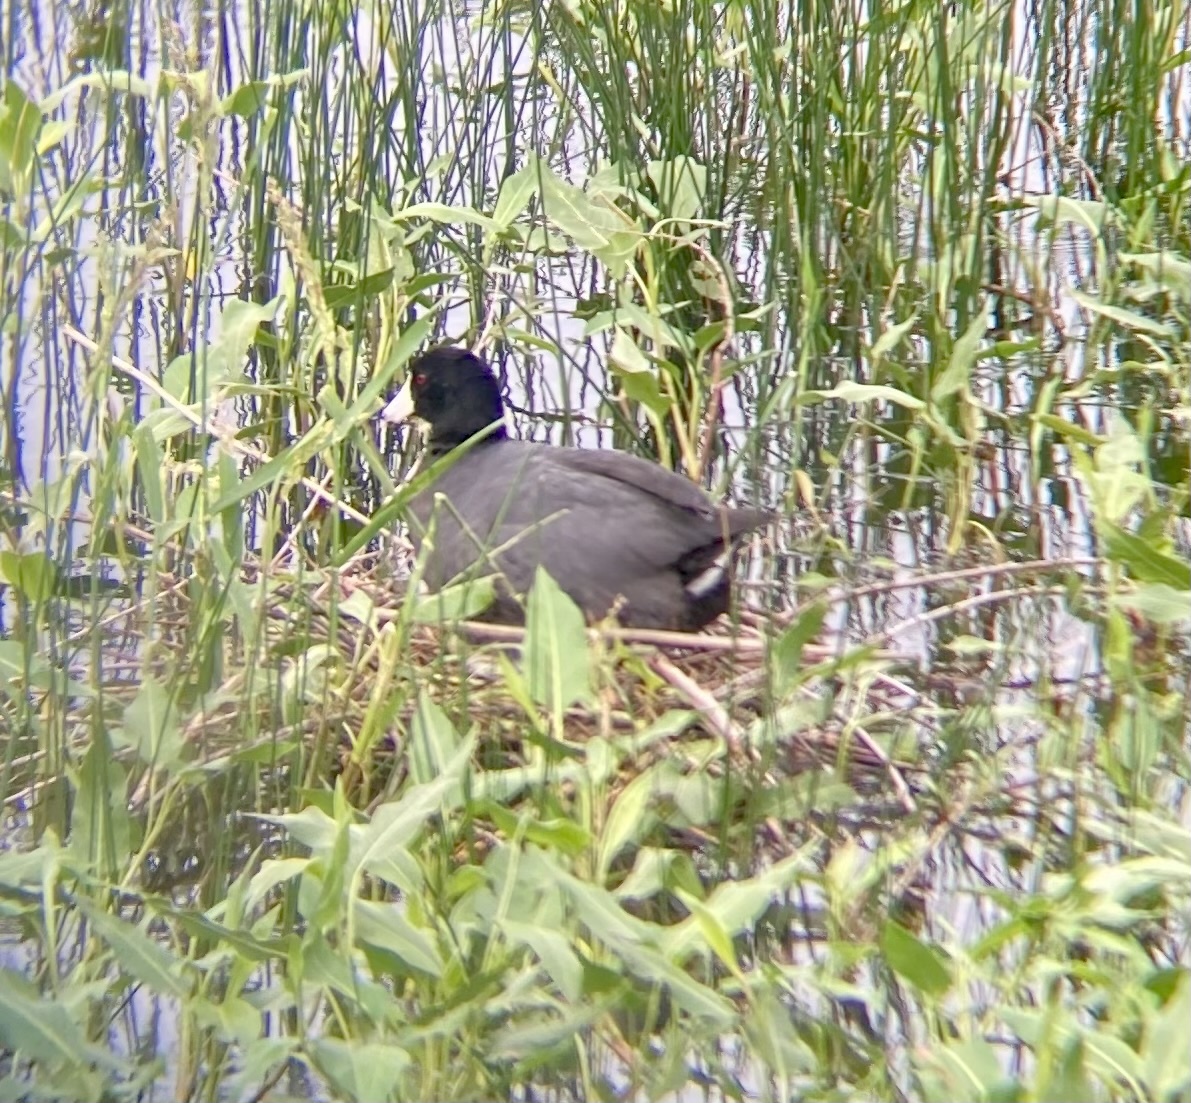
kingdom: Animalia
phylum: Chordata
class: Aves
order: Gruiformes
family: Rallidae
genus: Fulica
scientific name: Fulica americana
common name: American coot
